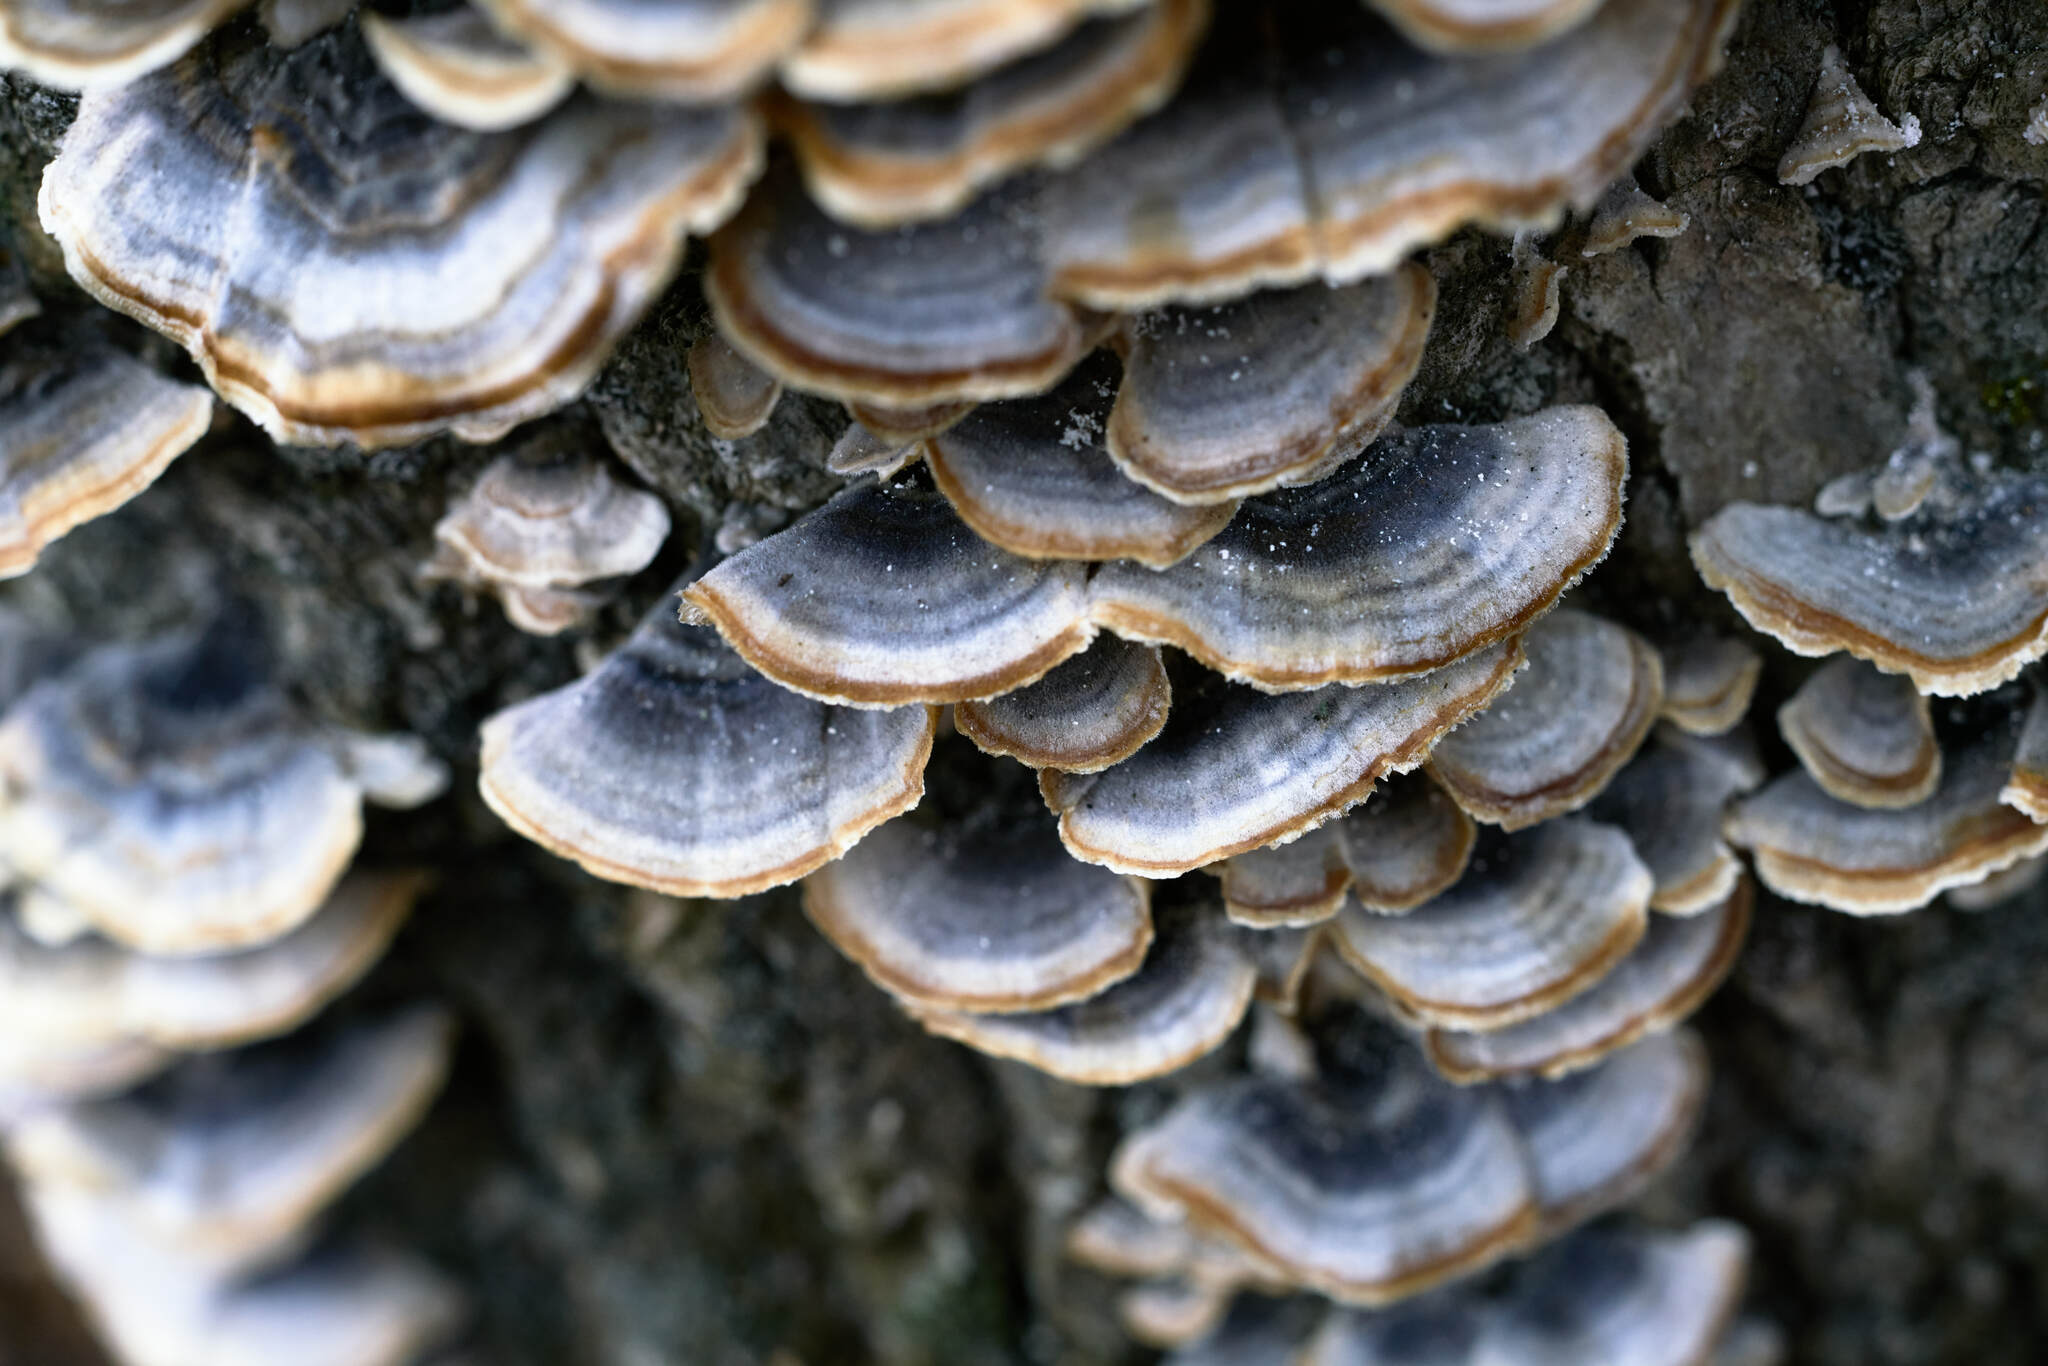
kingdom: Fungi
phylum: Basidiomycota
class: Agaricomycetes
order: Polyporales
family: Polyporaceae
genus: Trametes
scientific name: Trametes versicolor
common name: Turkeytail
